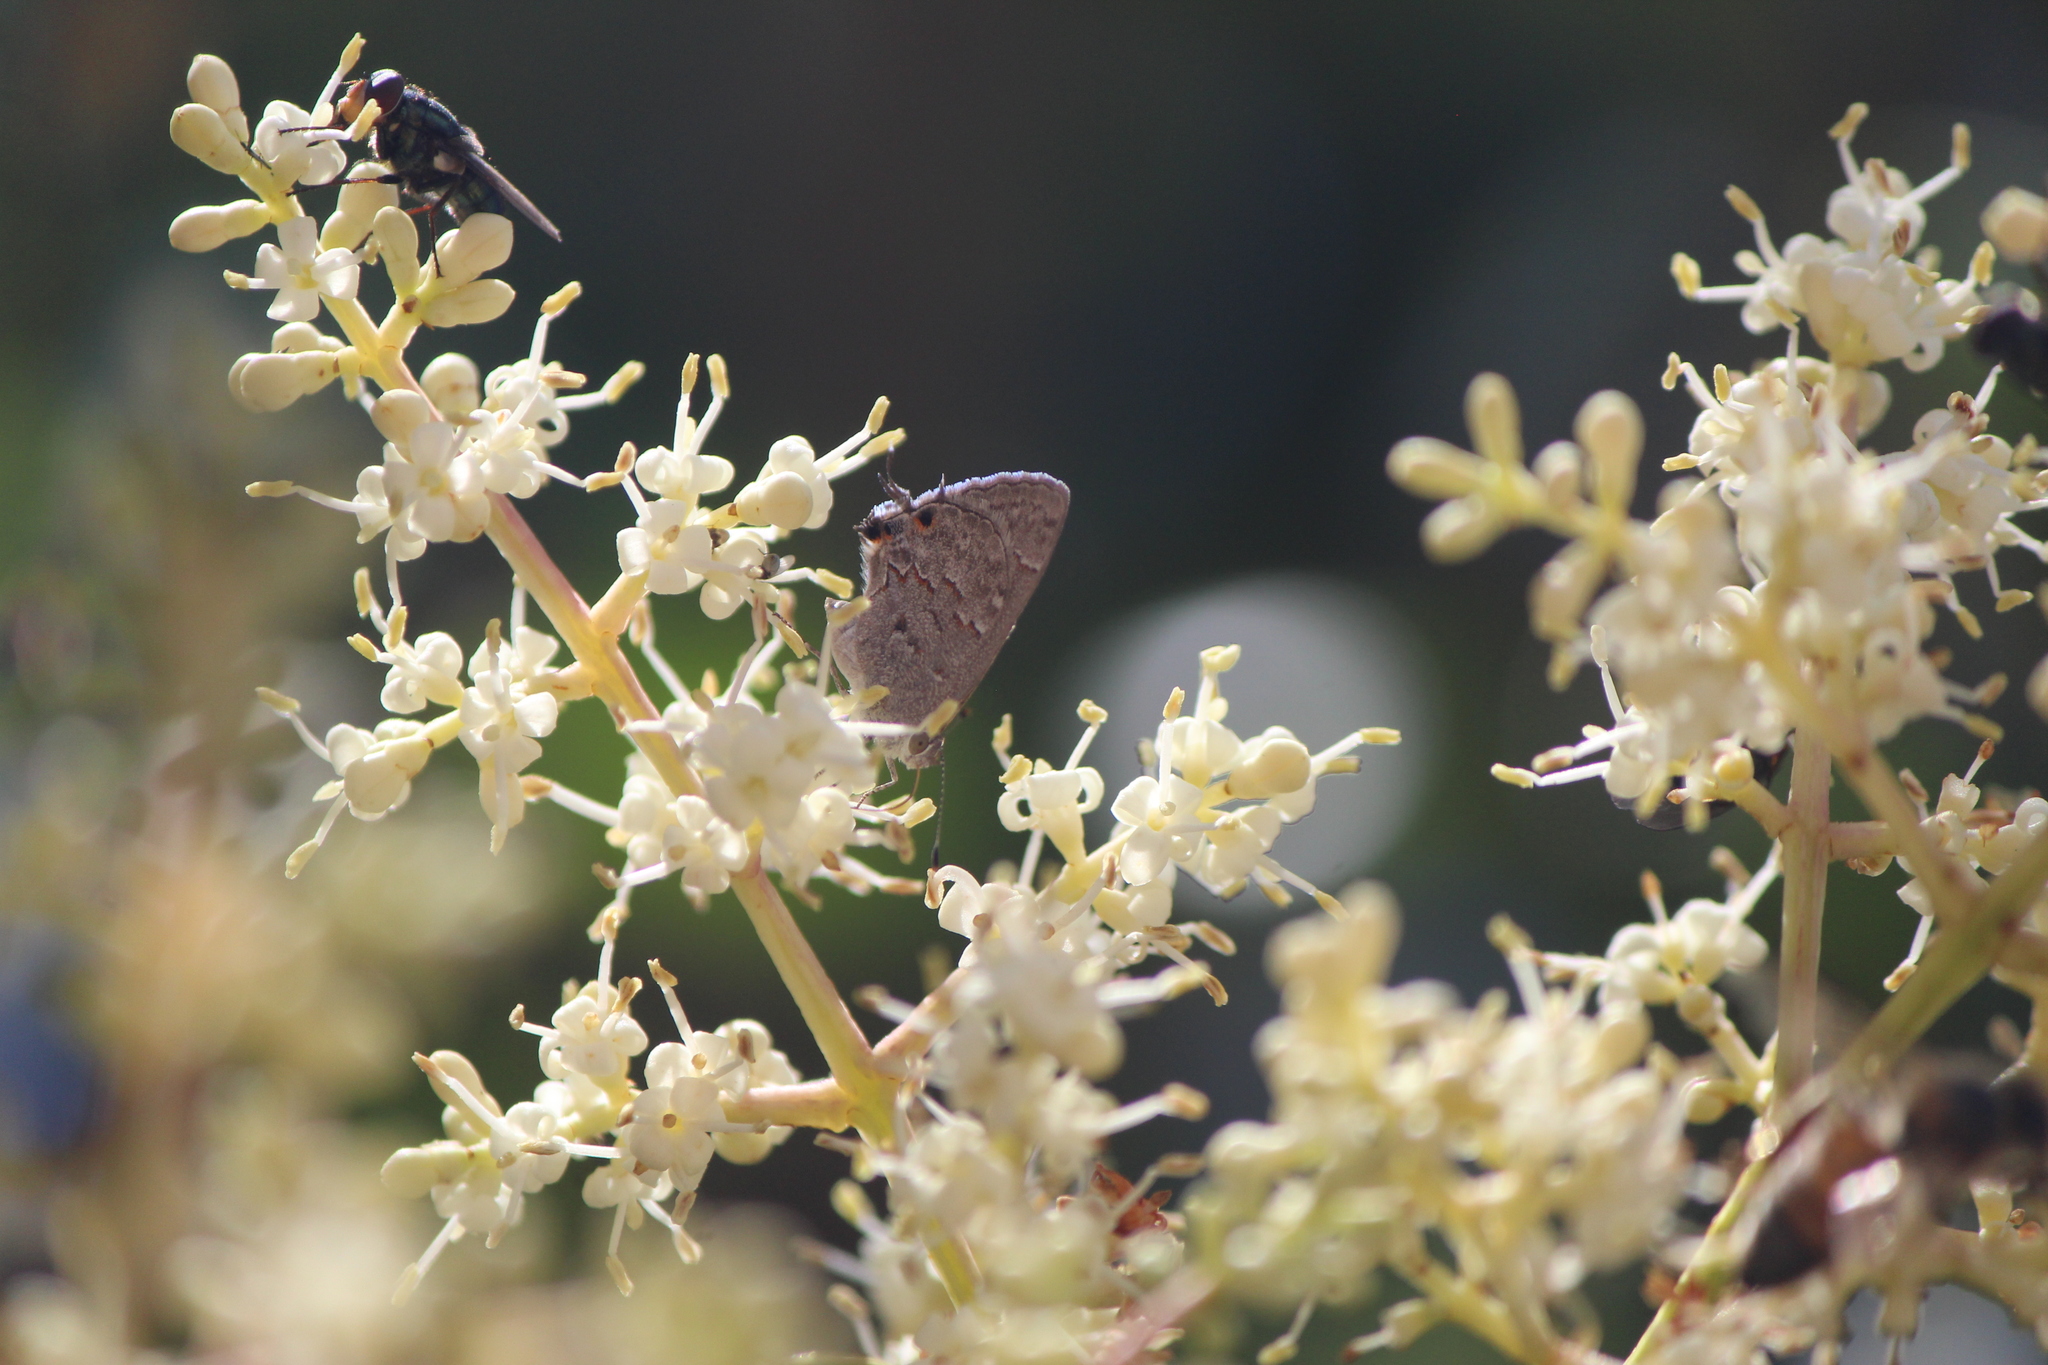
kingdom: Animalia
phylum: Arthropoda
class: Insecta
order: Lepidoptera
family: Lycaenidae
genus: Ministrymon
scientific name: Ministrymon leda
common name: Leda ministreak
